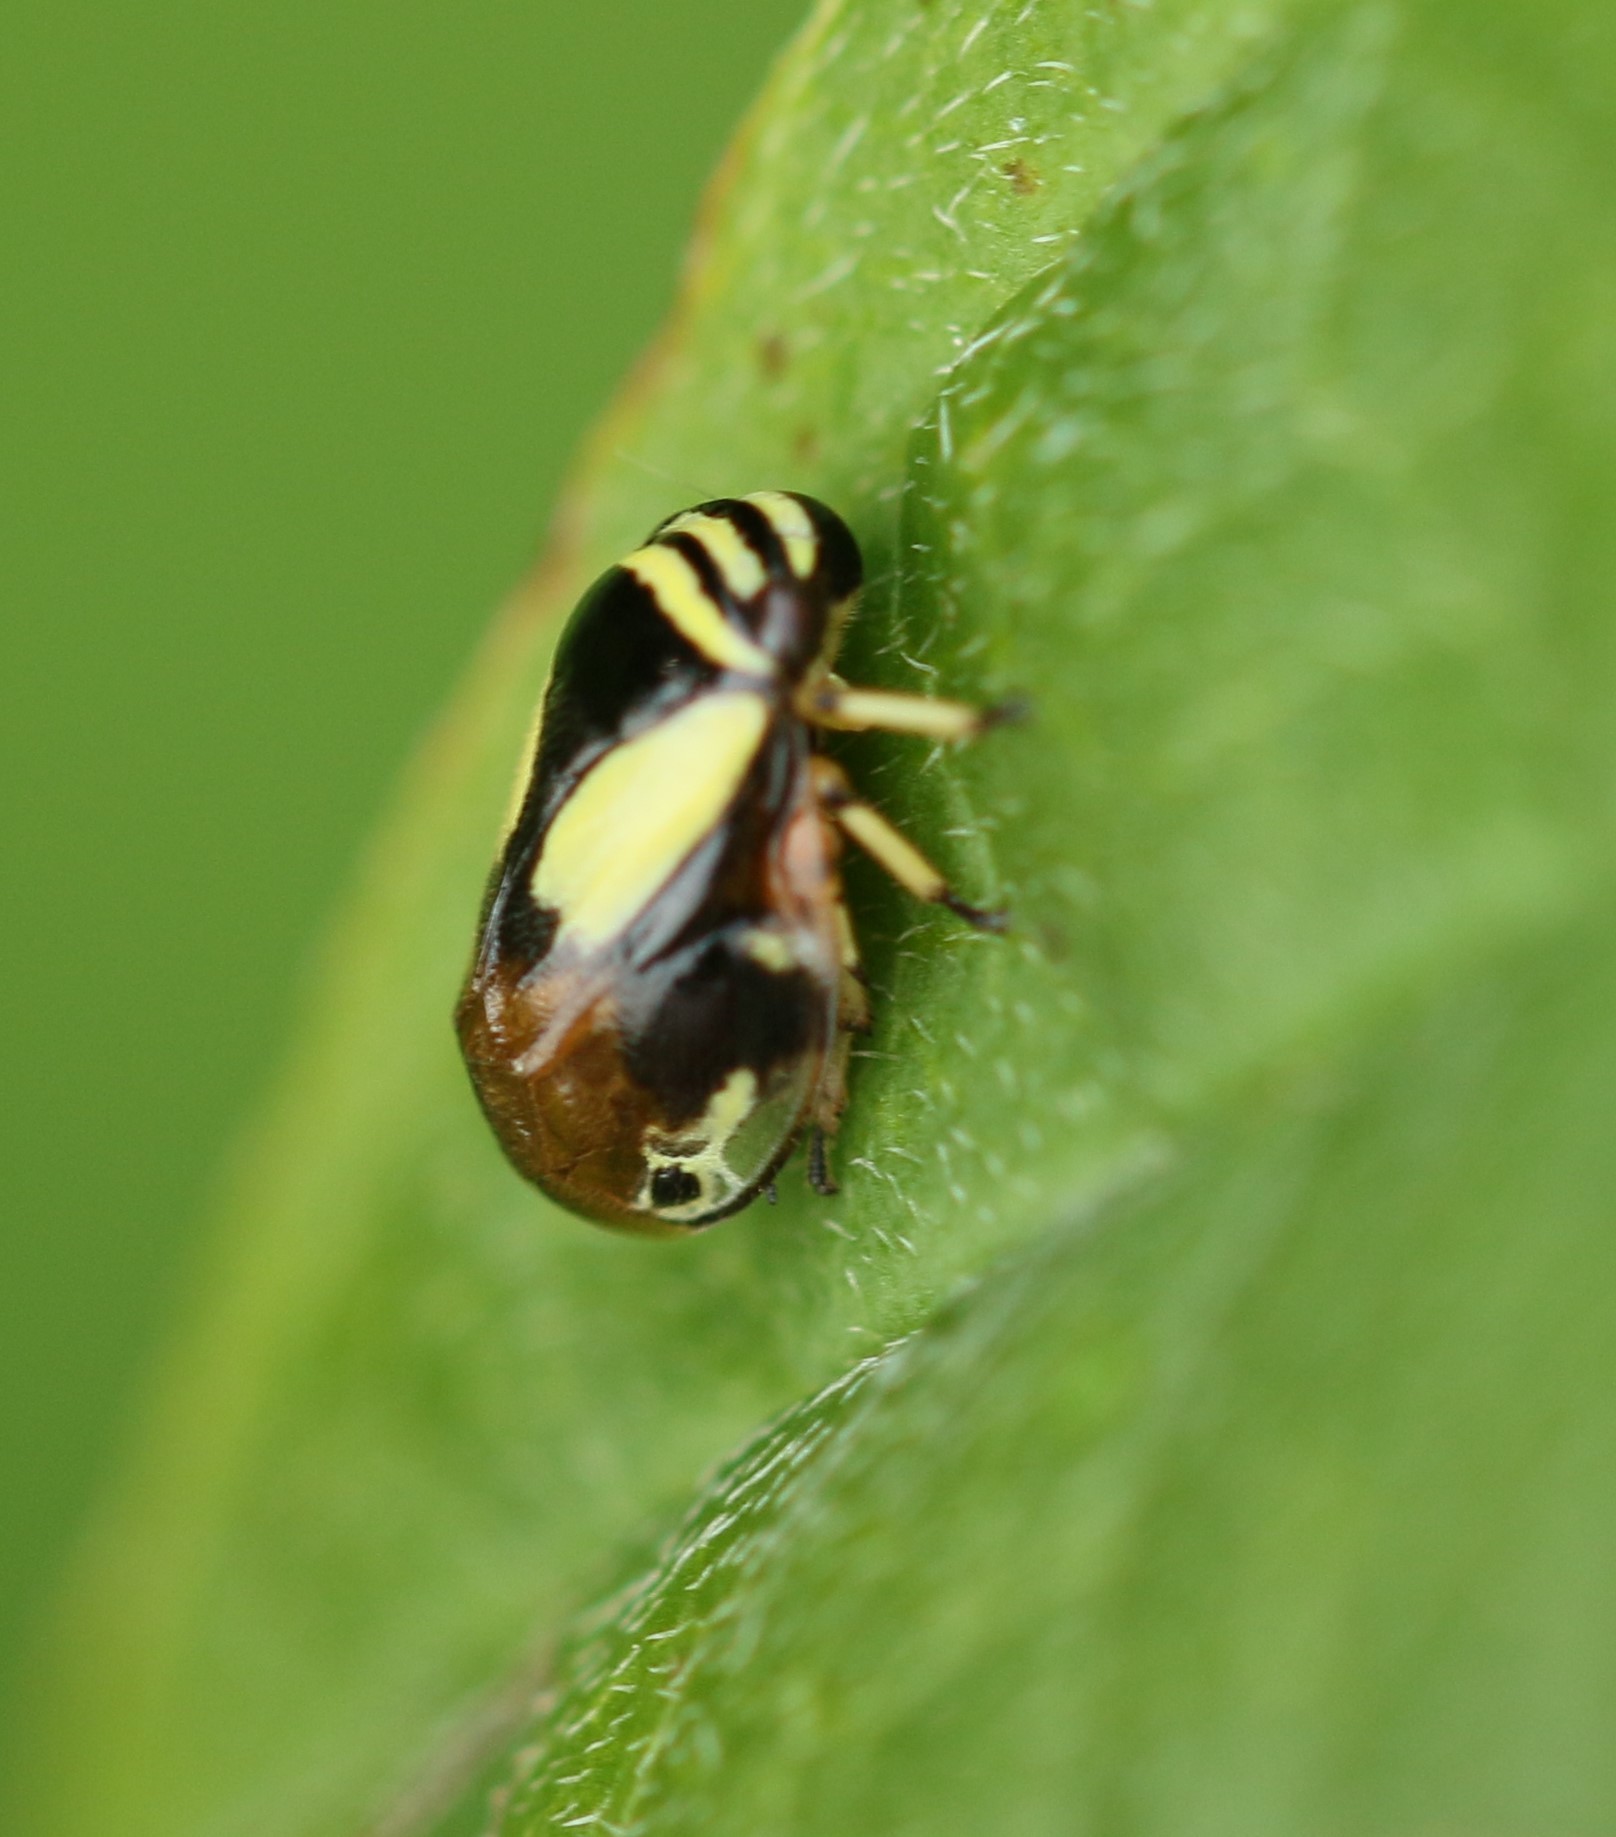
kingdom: Animalia
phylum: Arthropoda
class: Insecta
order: Hemiptera
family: Clastopteridae
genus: Clastoptera
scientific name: Clastoptera proteus
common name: Dogwood spittlebug
